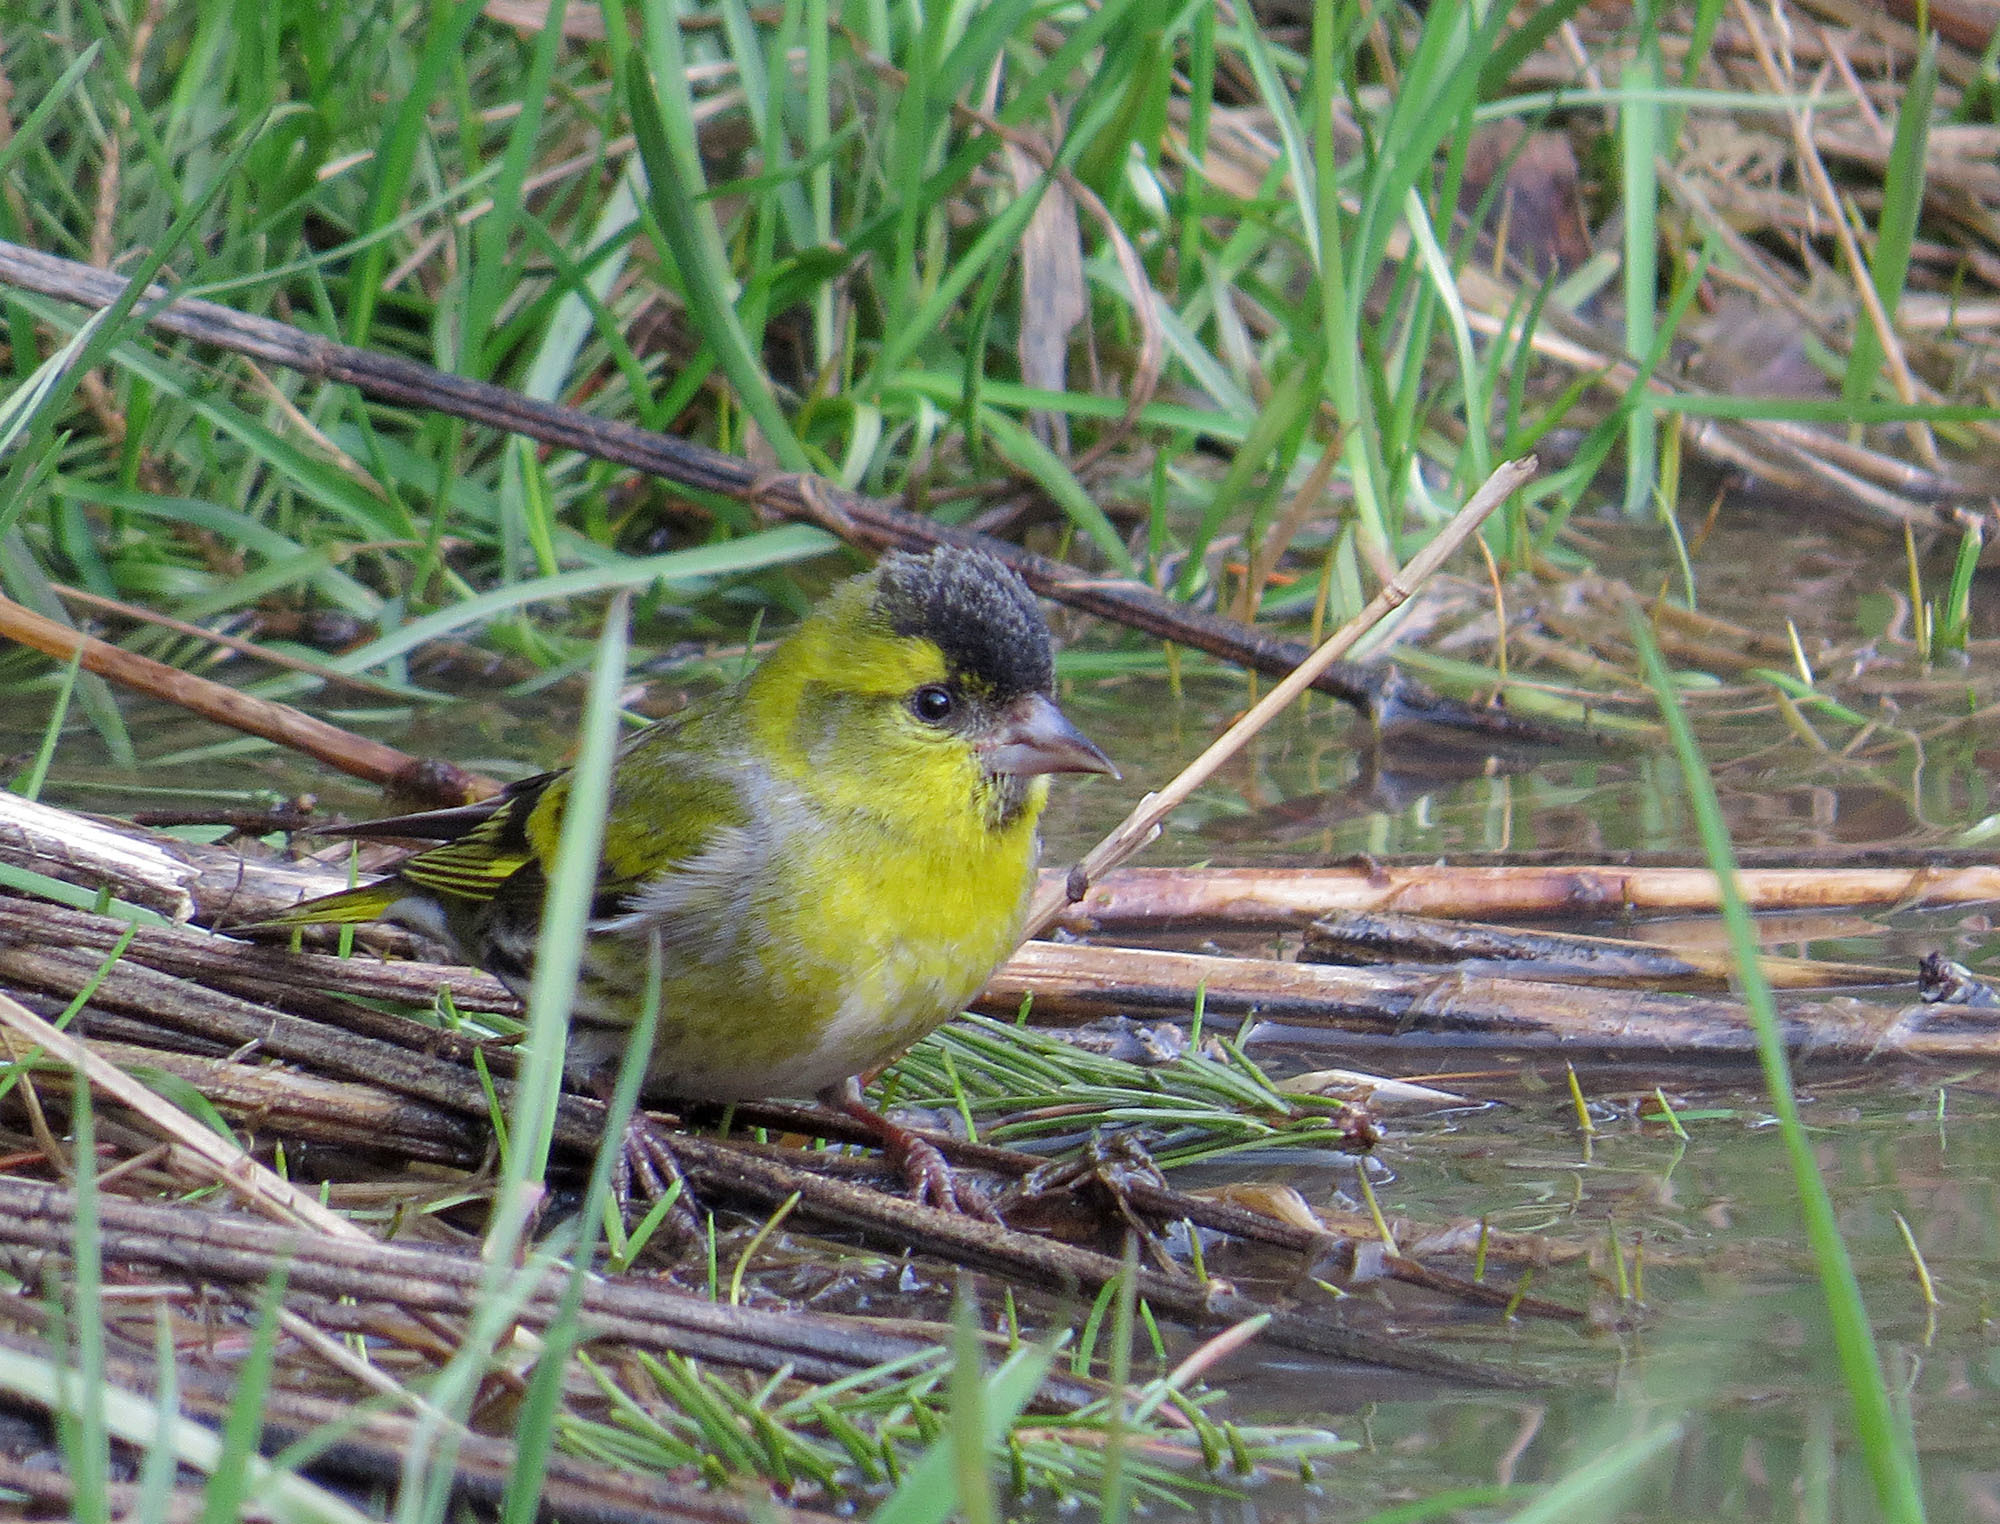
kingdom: Animalia
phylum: Chordata
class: Aves
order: Passeriformes
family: Fringillidae
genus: Spinus
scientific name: Spinus spinus
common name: Eurasian siskin
